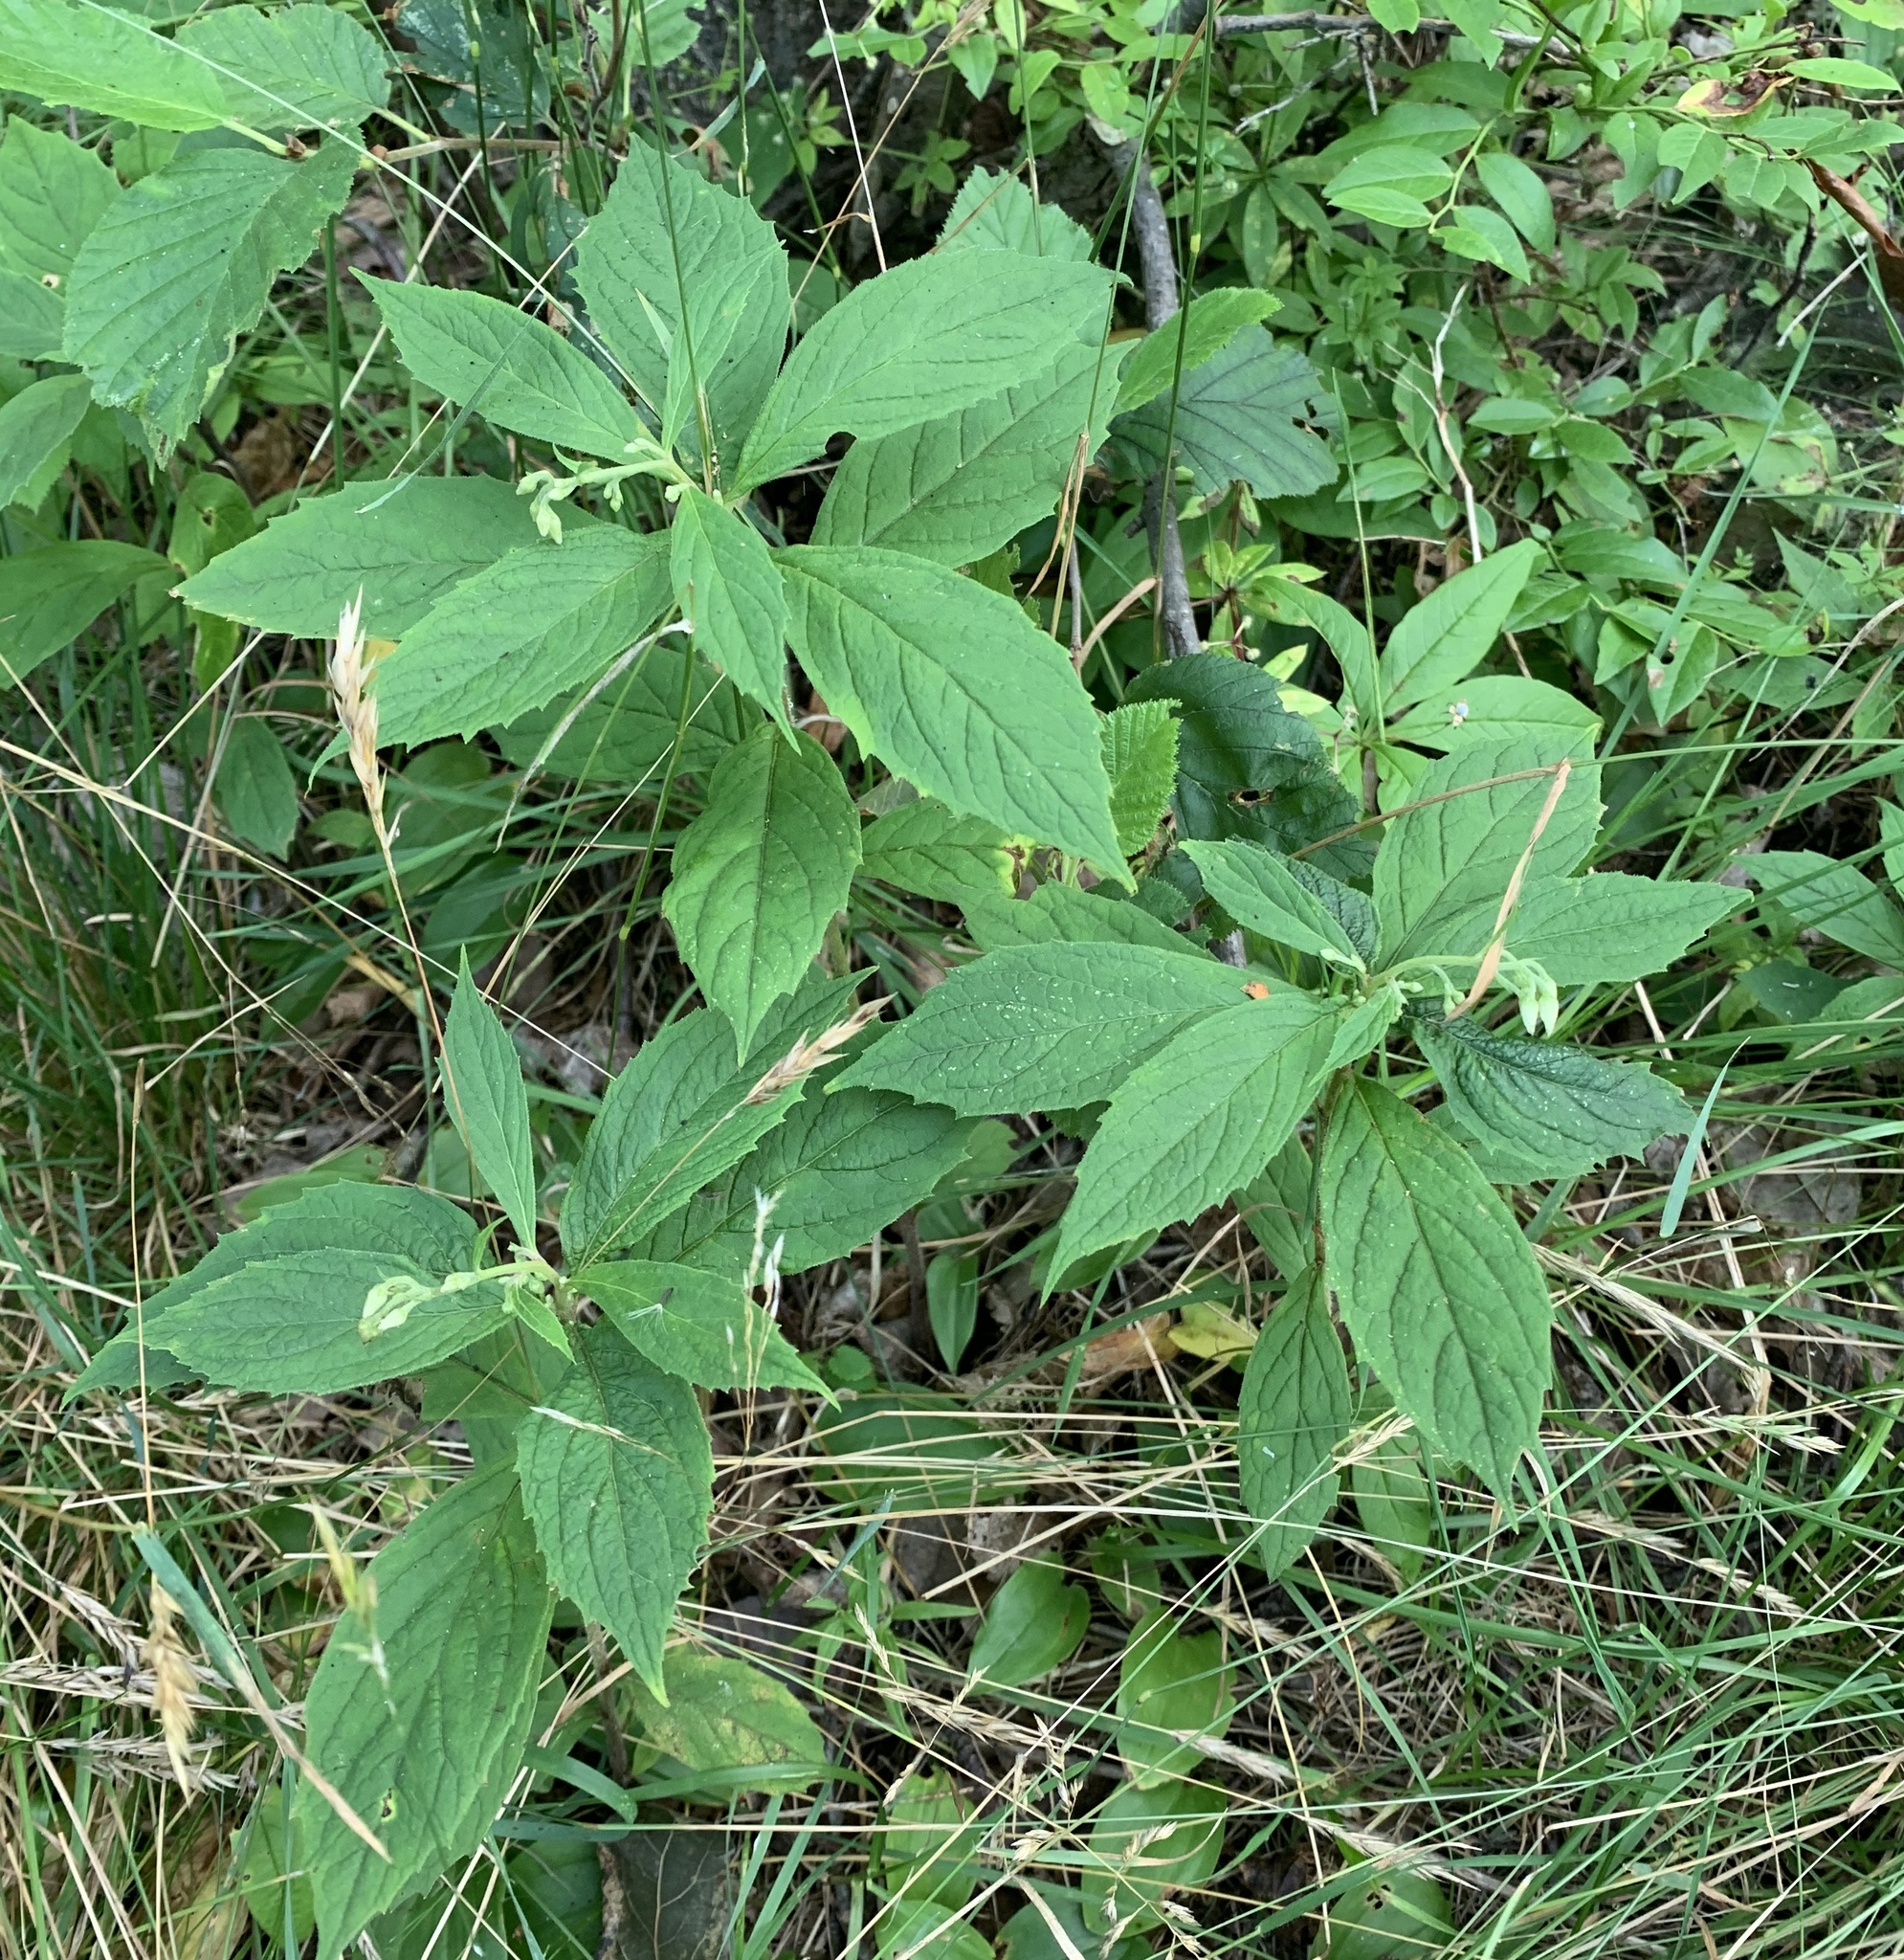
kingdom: Plantae
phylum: Tracheophyta
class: Magnoliopsida
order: Asterales
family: Asteraceae
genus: Oclemena
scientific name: Oclemena acuminata
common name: Mountain aster
